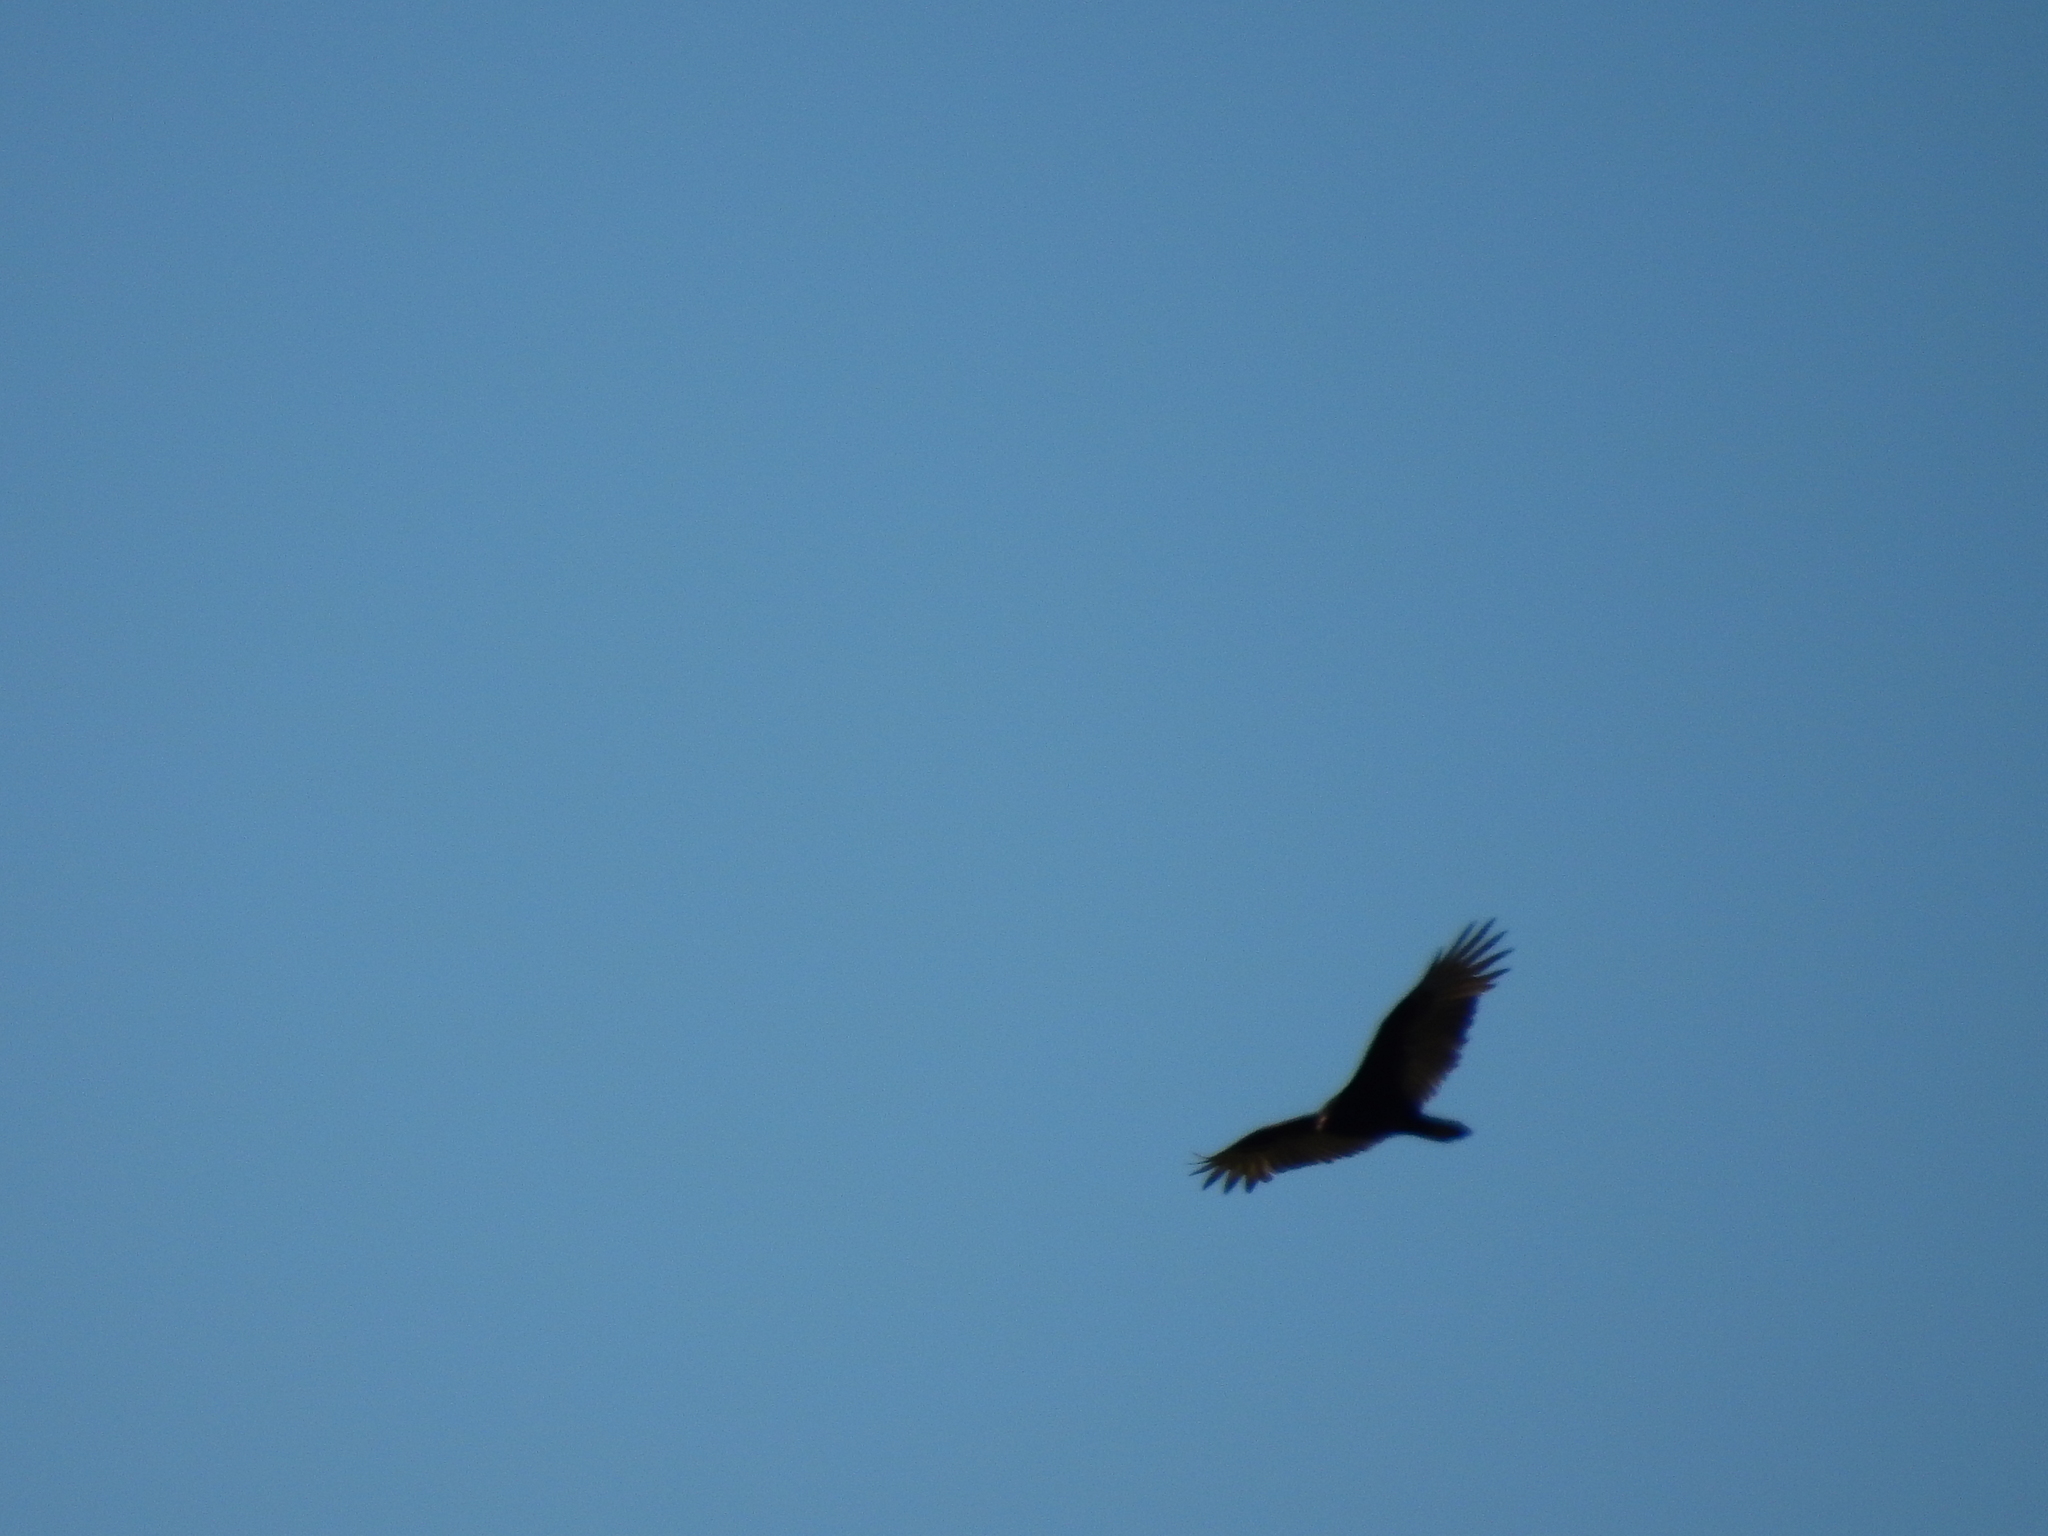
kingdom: Animalia
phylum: Chordata
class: Aves
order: Accipitriformes
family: Cathartidae
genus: Cathartes
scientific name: Cathartes aura
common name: Turkey vulture
